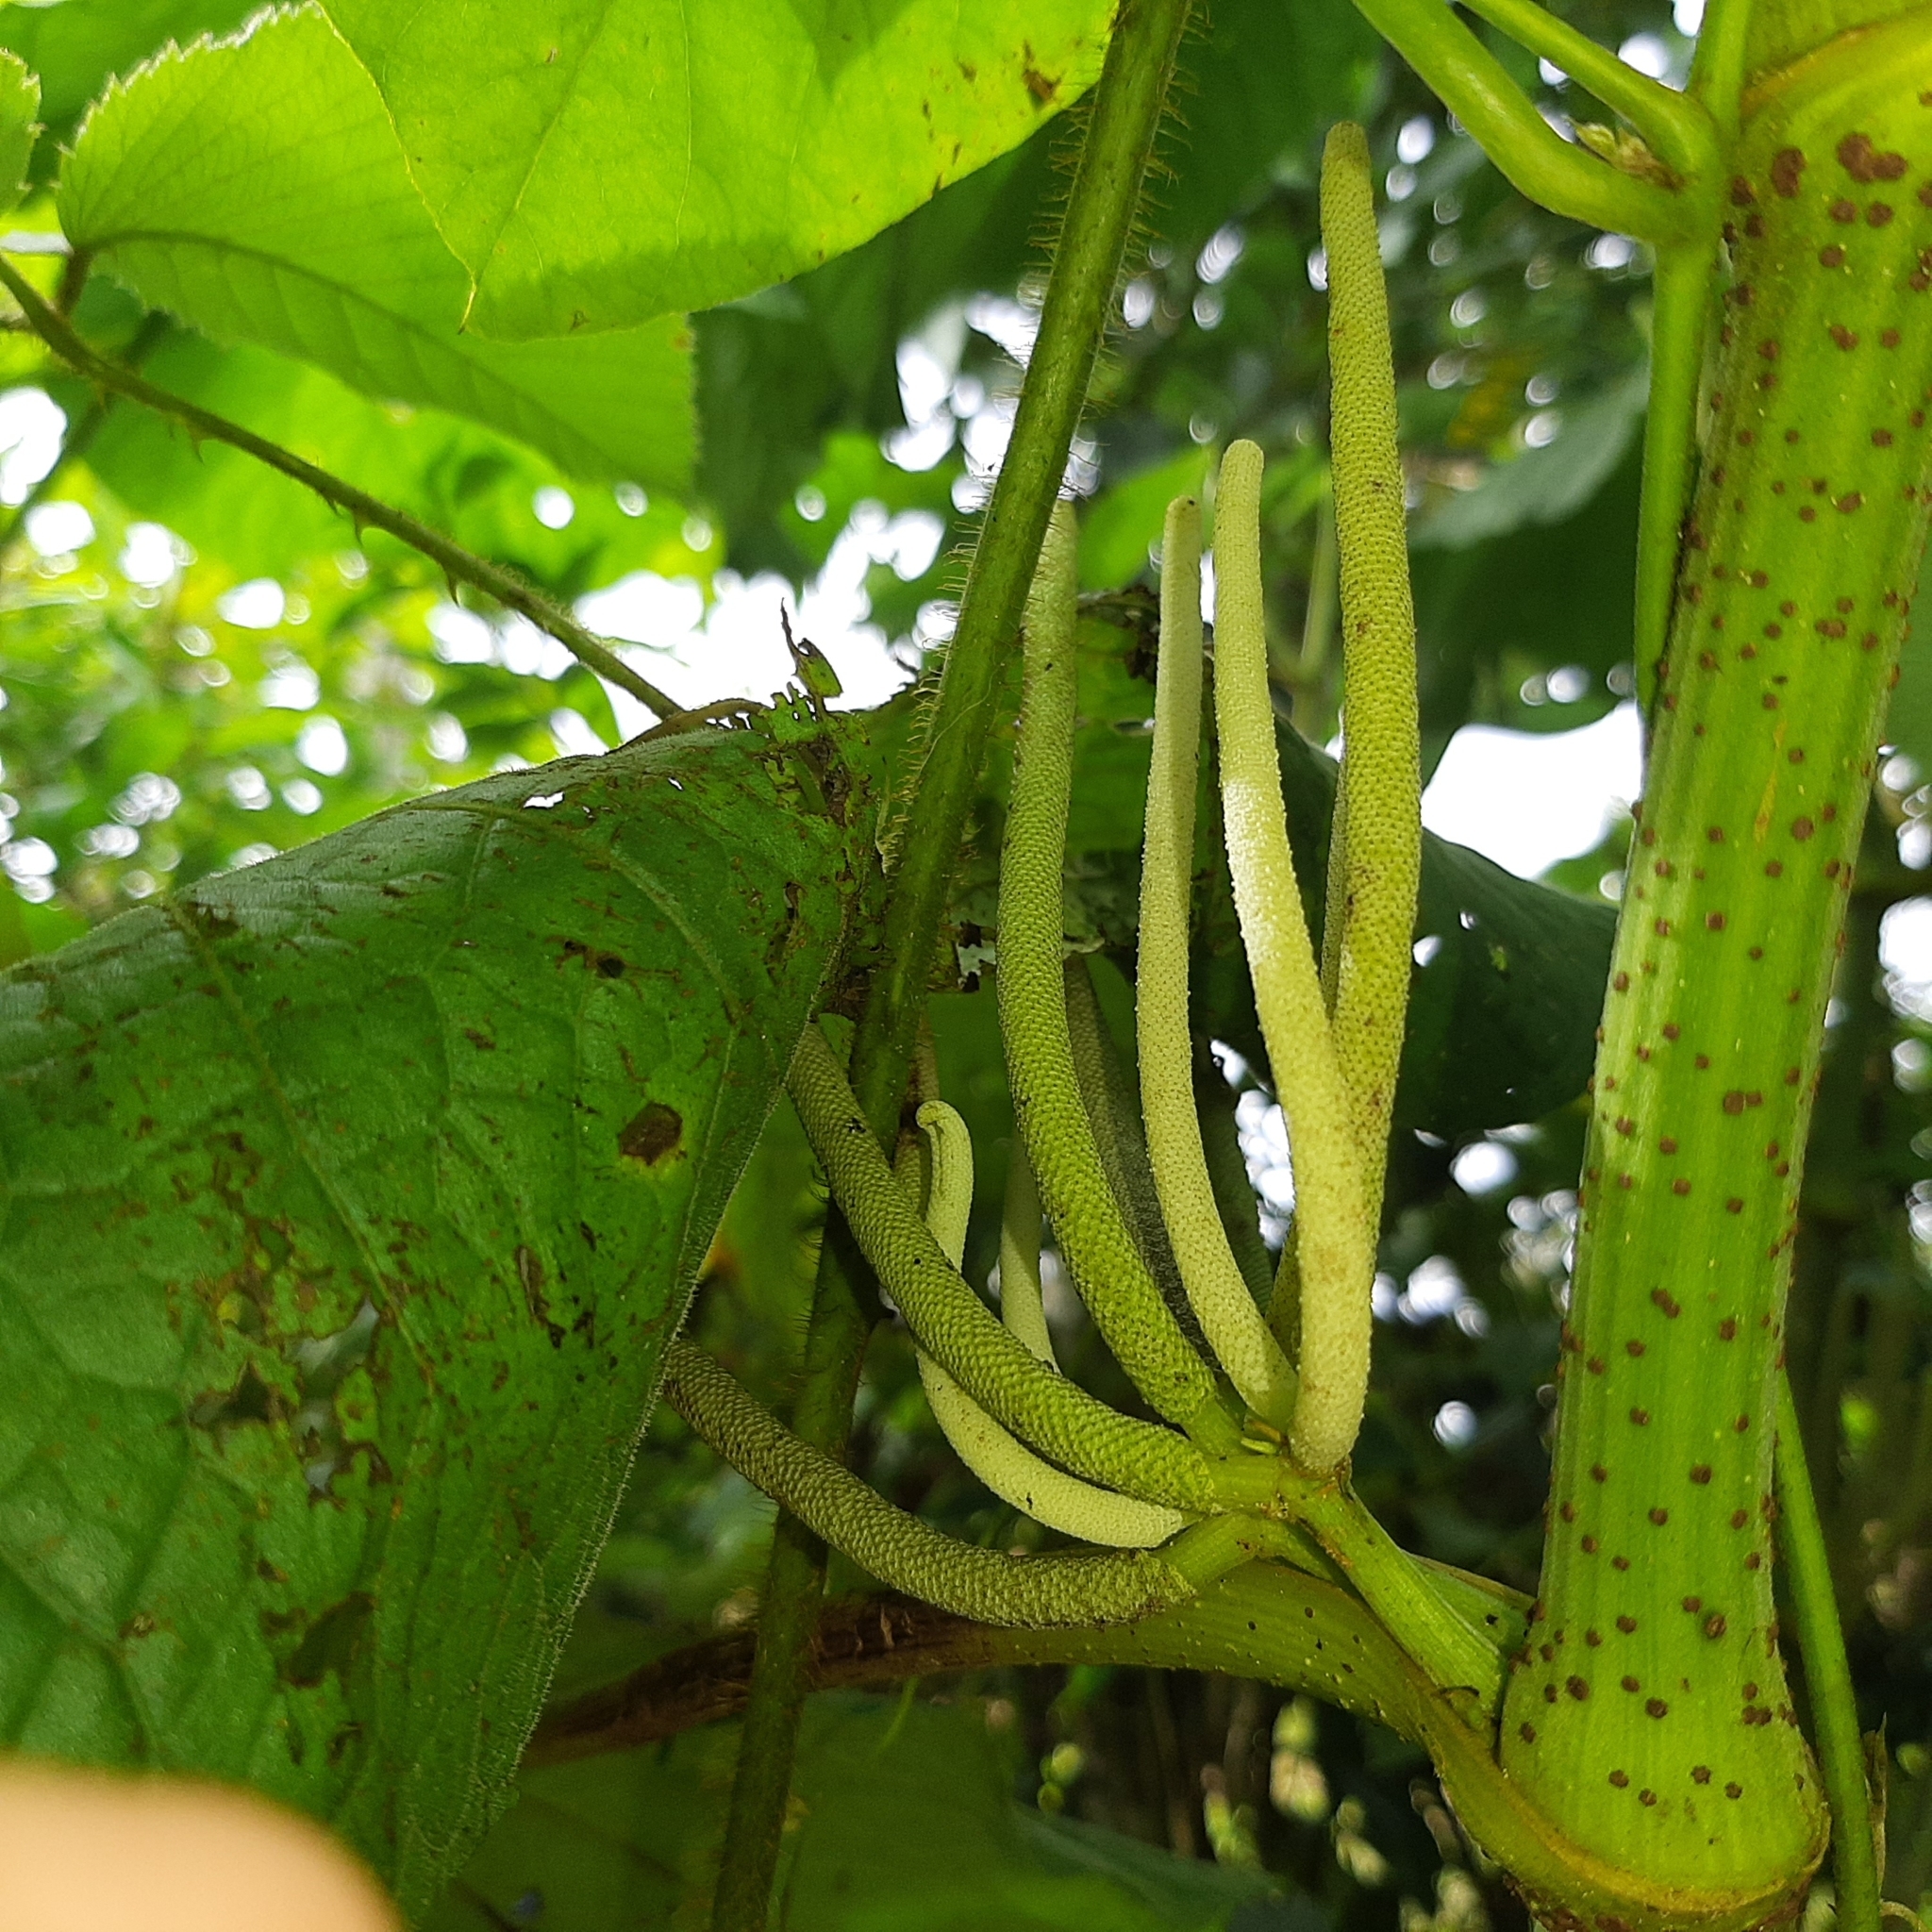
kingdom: Plantae
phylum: Tracheophyta
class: Magnoliopsida
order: Piperales
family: Piperaceae
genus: Piper
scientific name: Piper umbellatum
